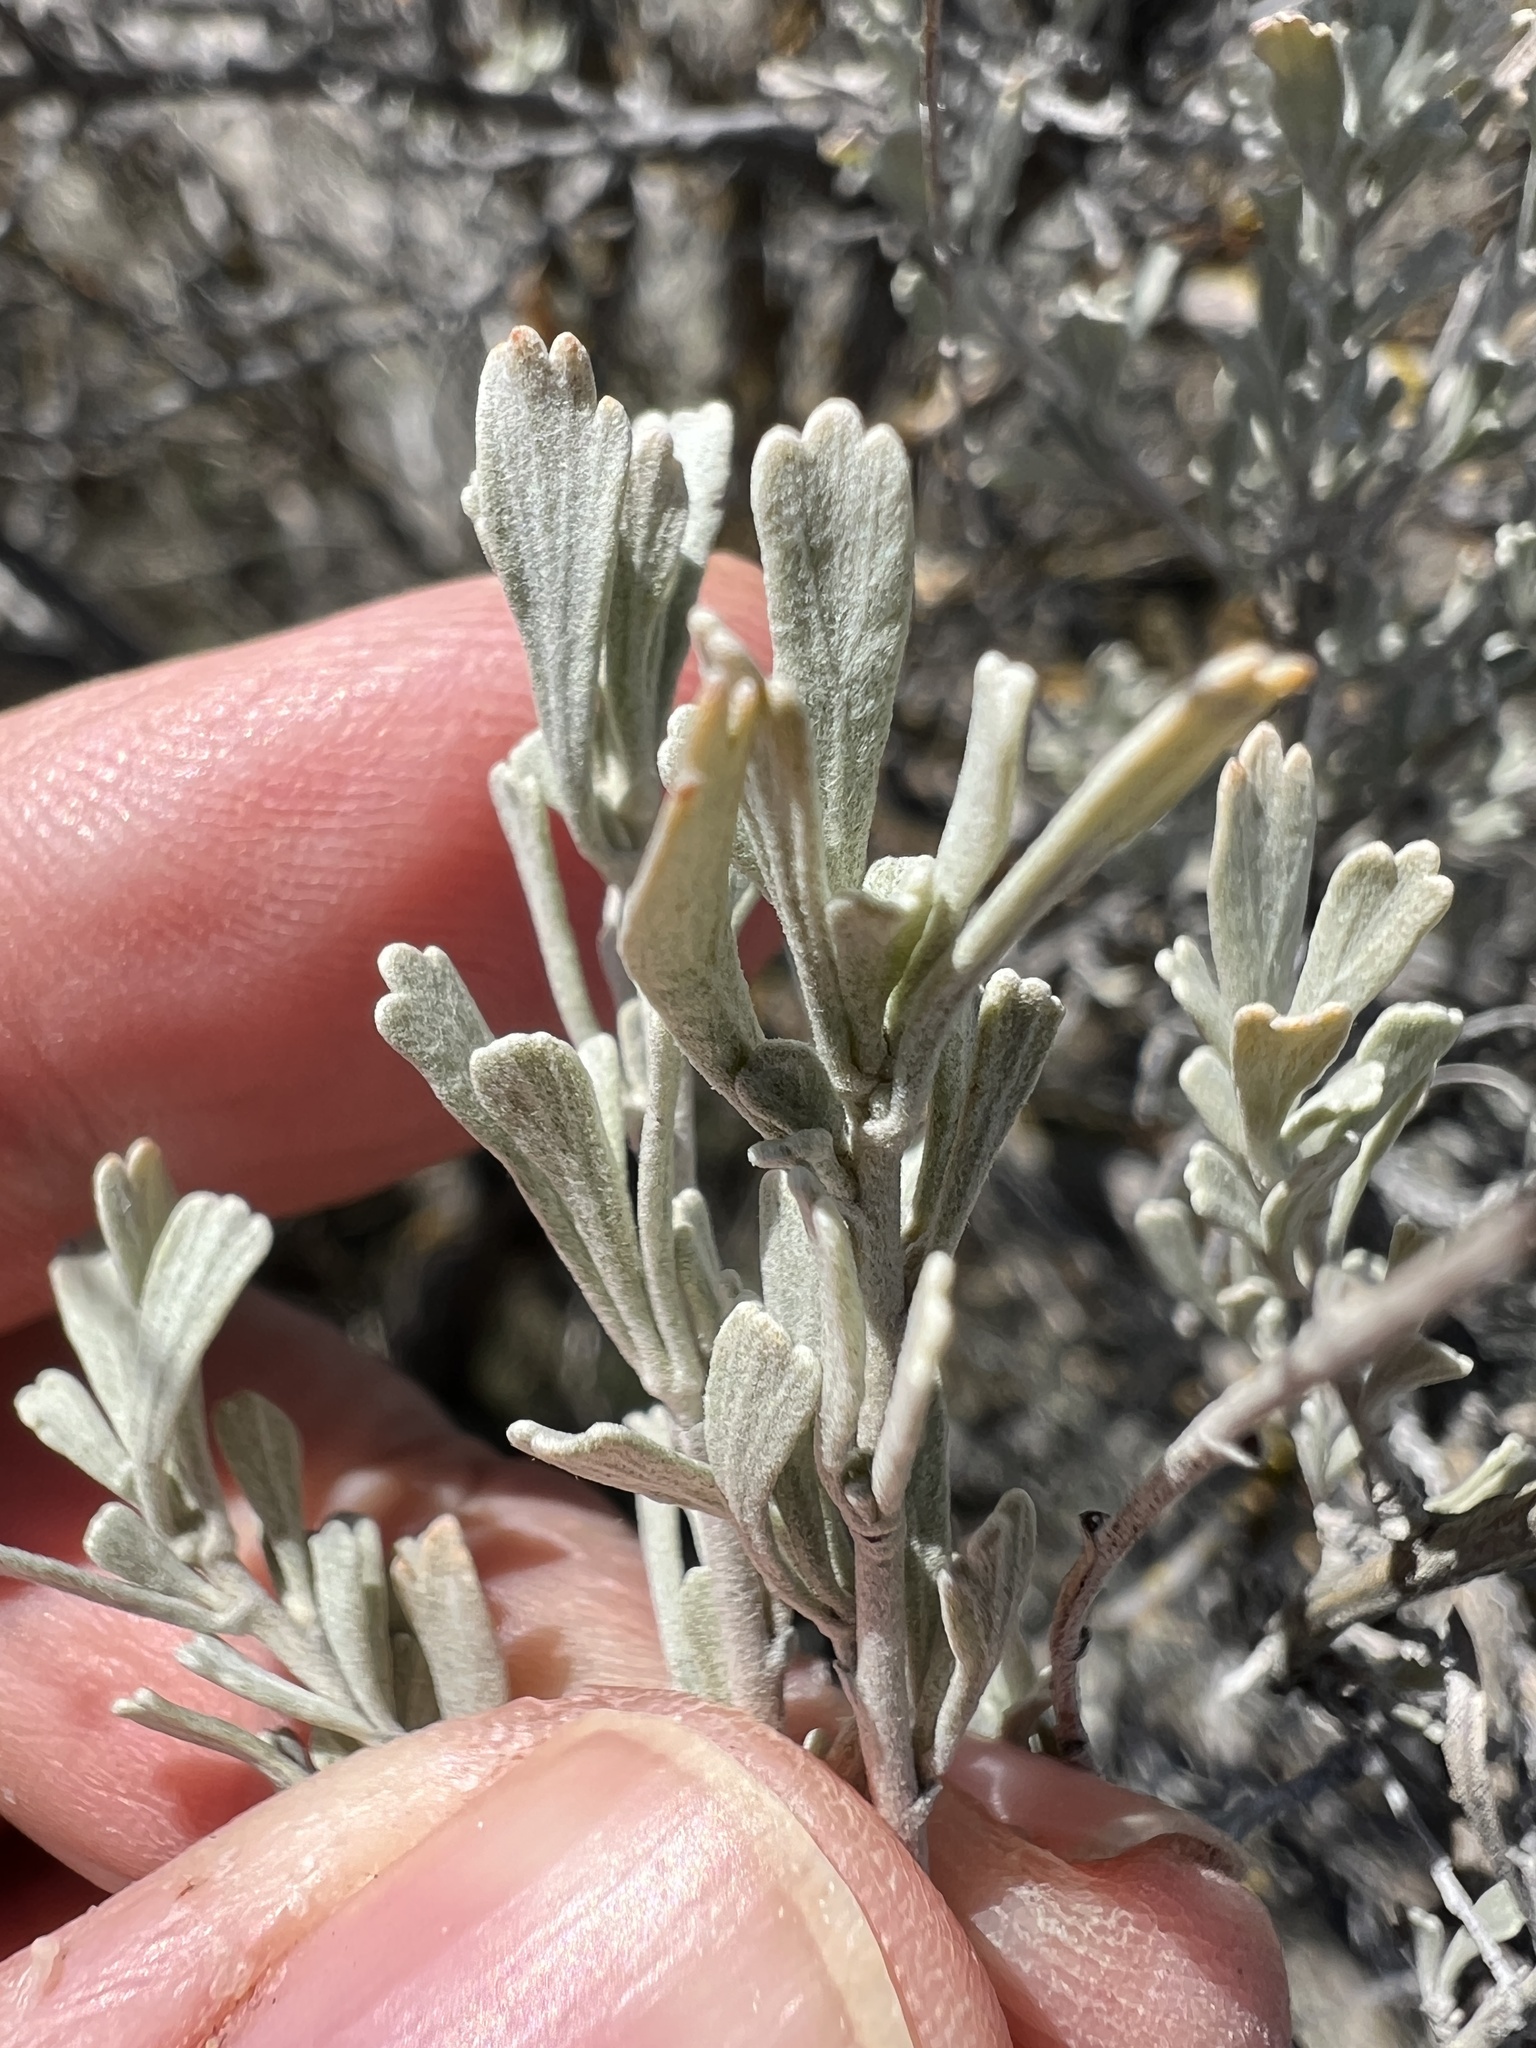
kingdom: Plantae
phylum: Tracheophyta
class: Magnoliopsida
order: Asterales
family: Asteraceae
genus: Artemisia
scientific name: Artemisia tridentata
